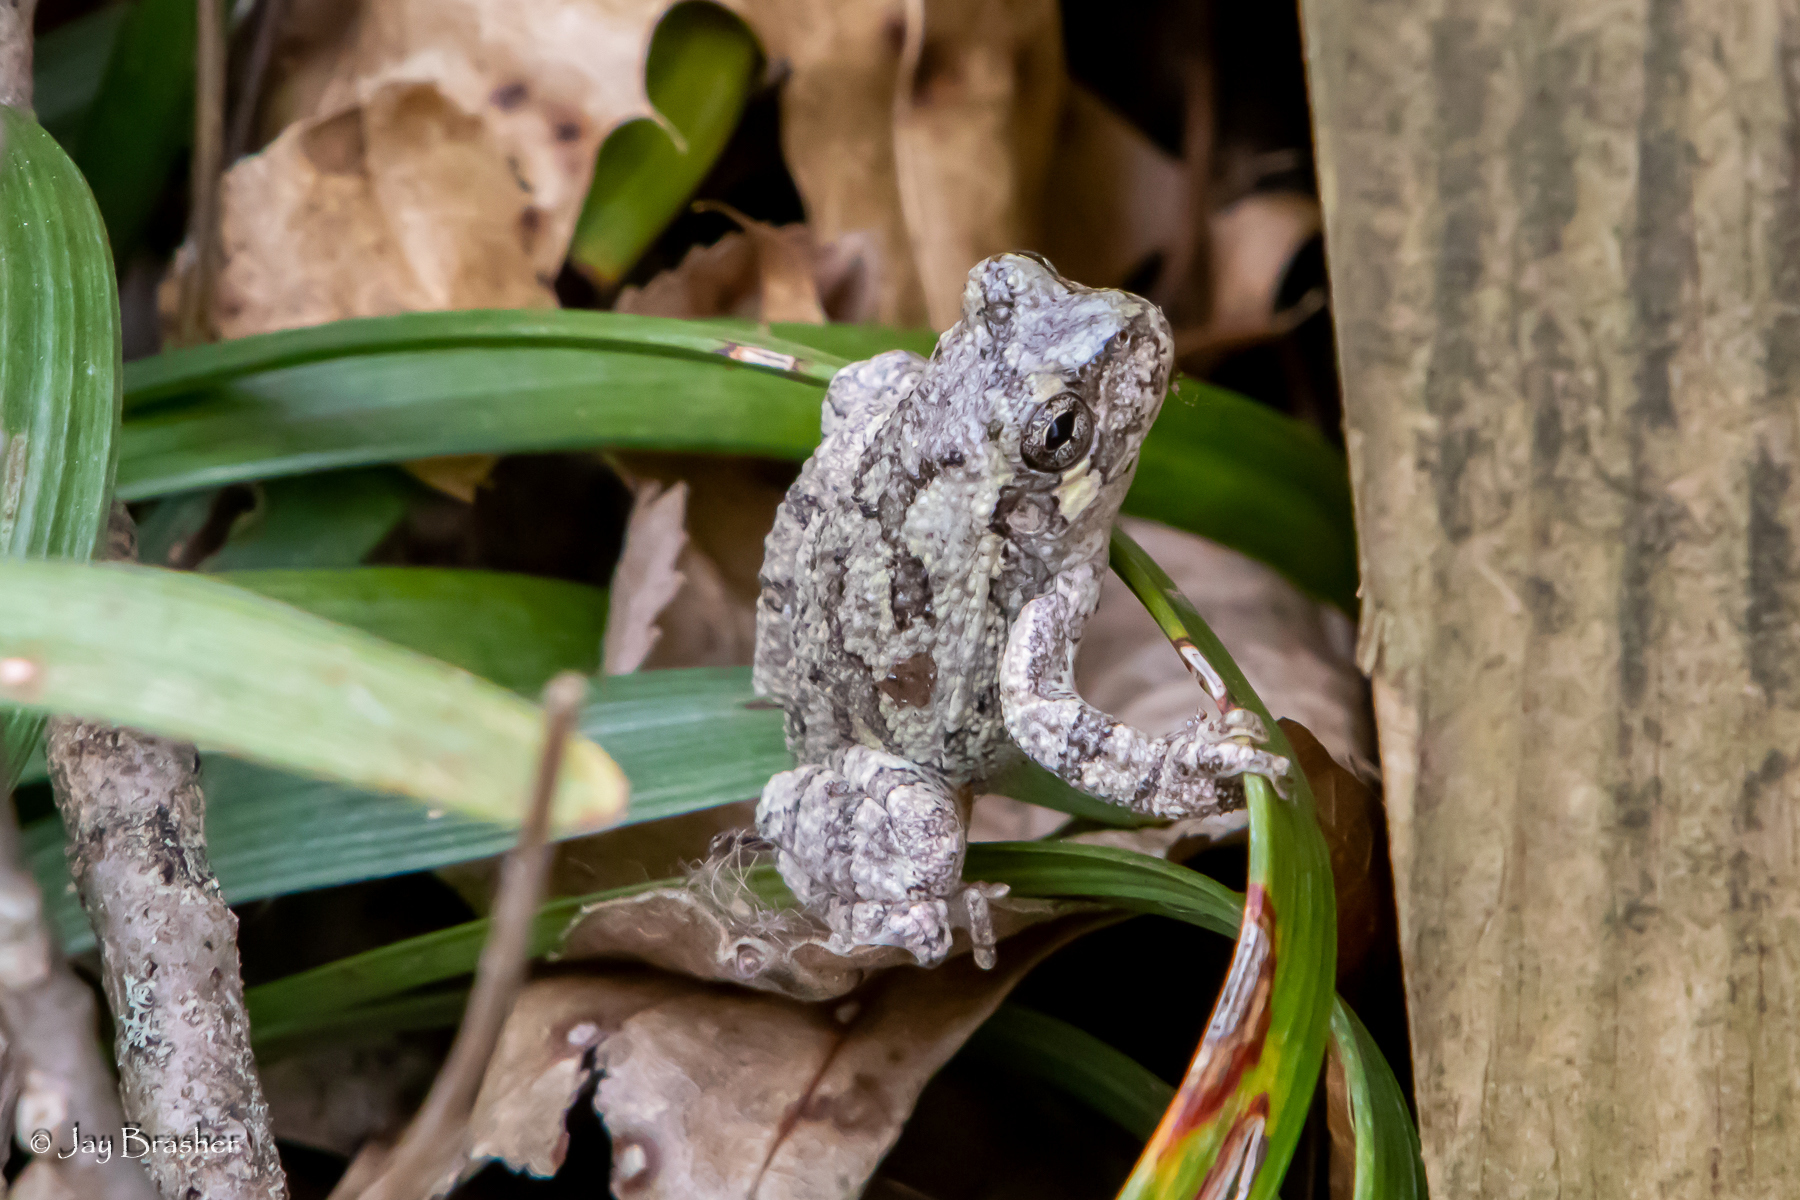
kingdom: Animalia
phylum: Chordata
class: Amphibia
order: Anura
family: Hylidae
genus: Dryophytes
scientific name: Dryophytes chrysoscelis
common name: Cope's gray treefrog
